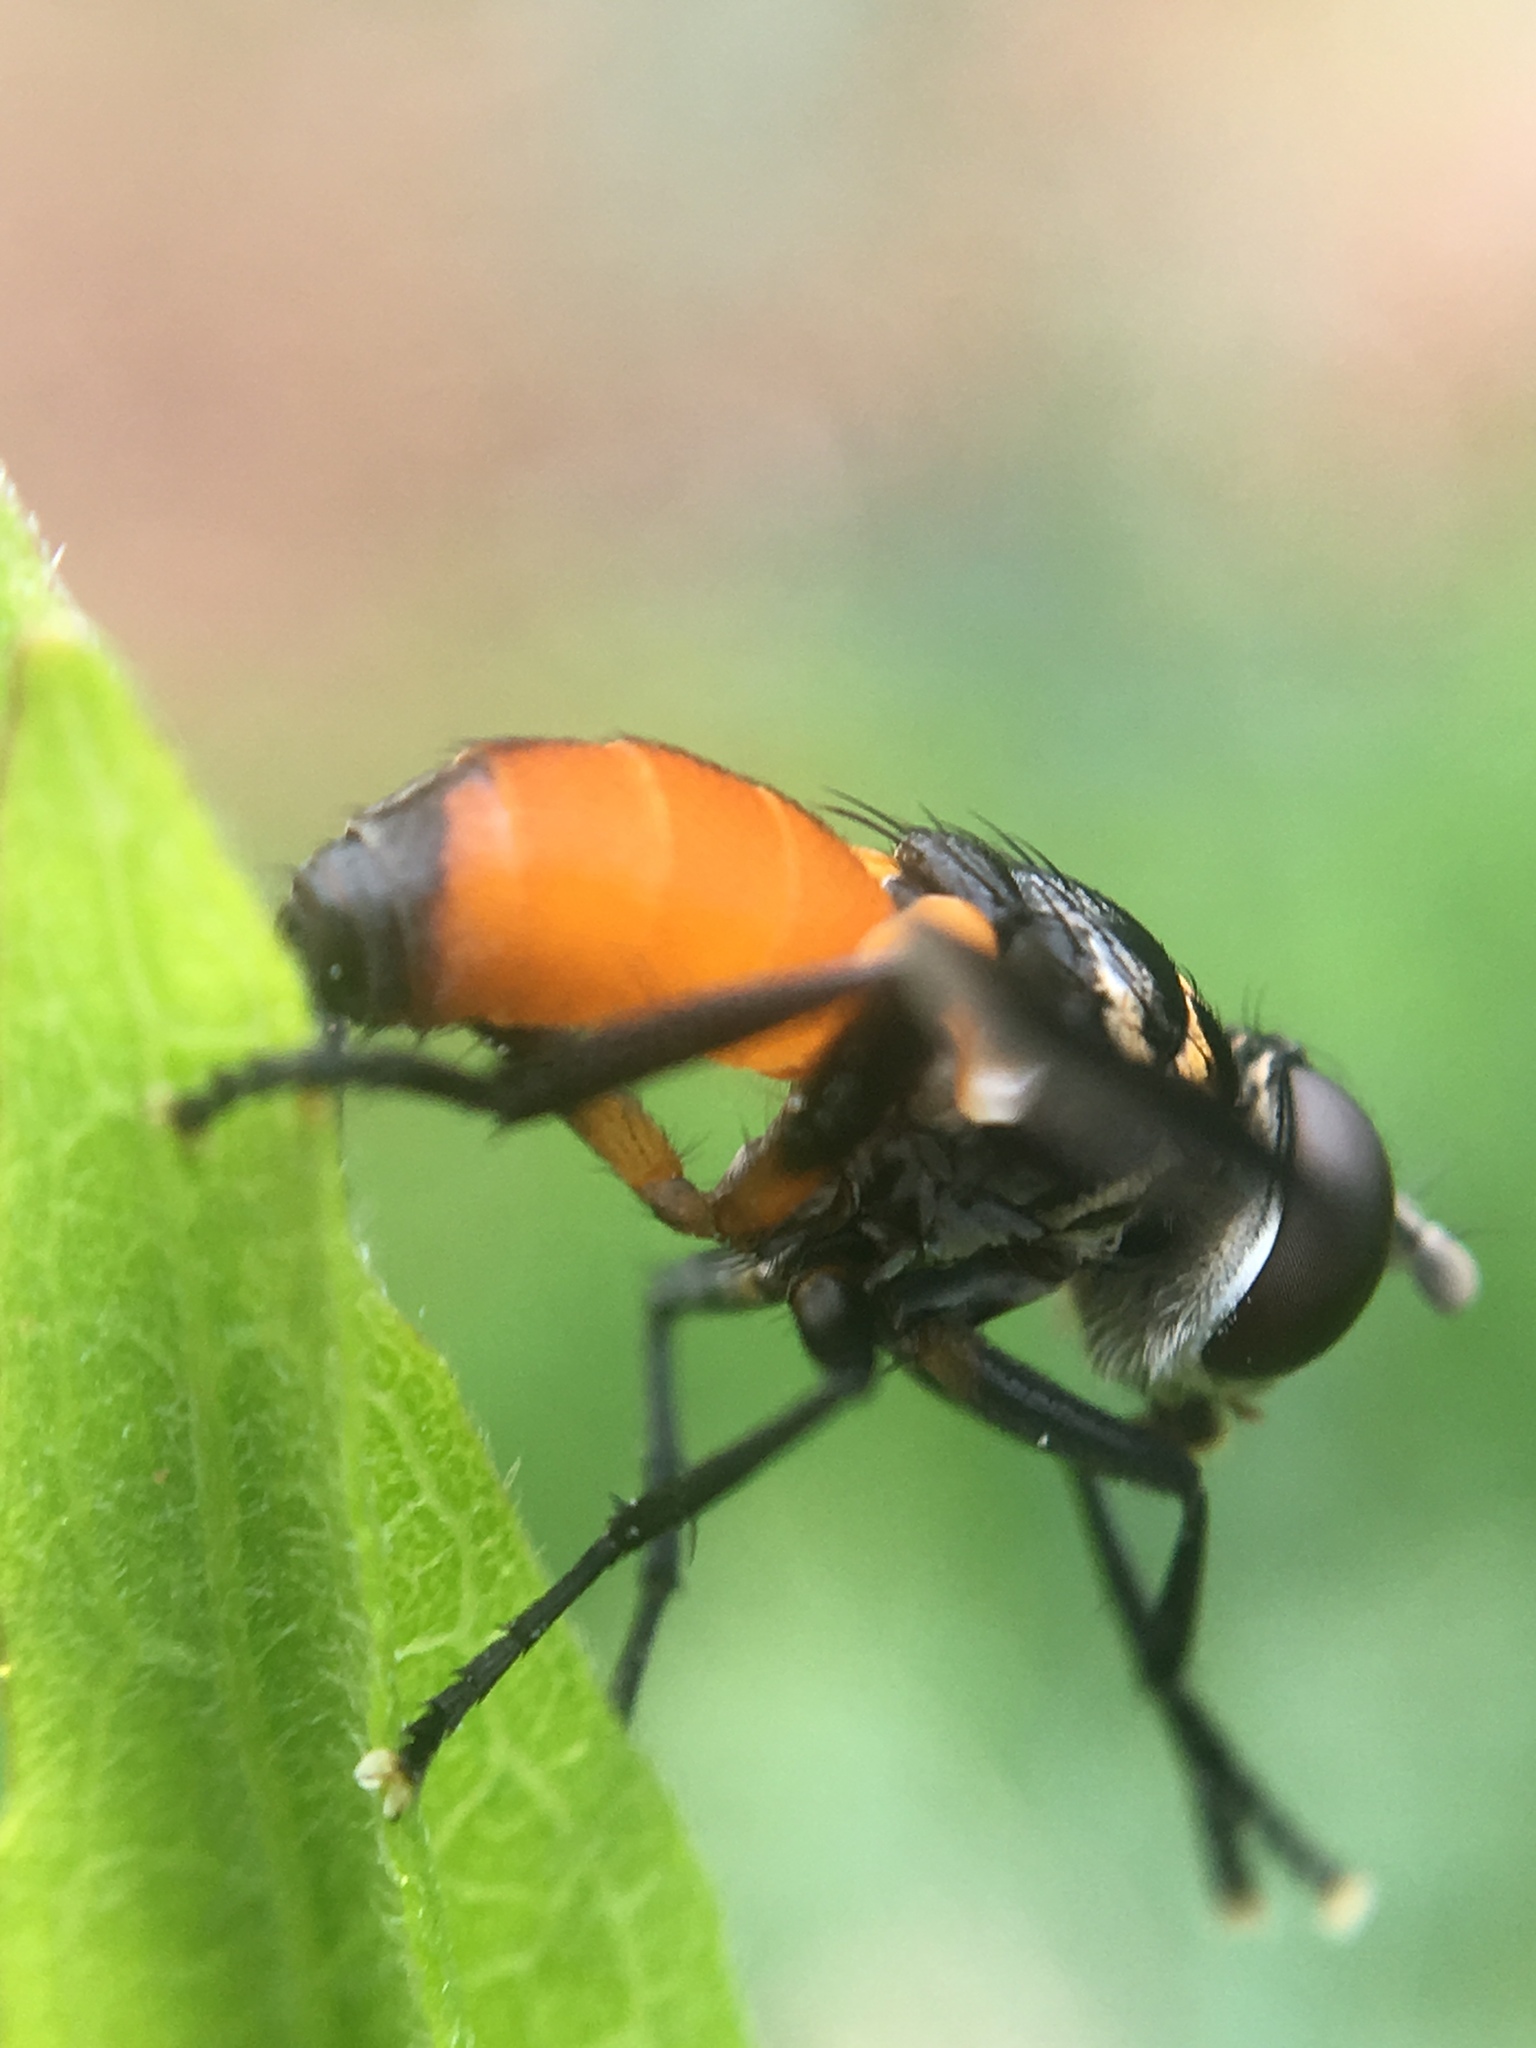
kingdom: Animalia
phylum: Arthropoda
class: Insecta
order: Diptera
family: Tachinidae
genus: Trichopoda
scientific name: Trichopoda pennipes
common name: Tachinid fly
